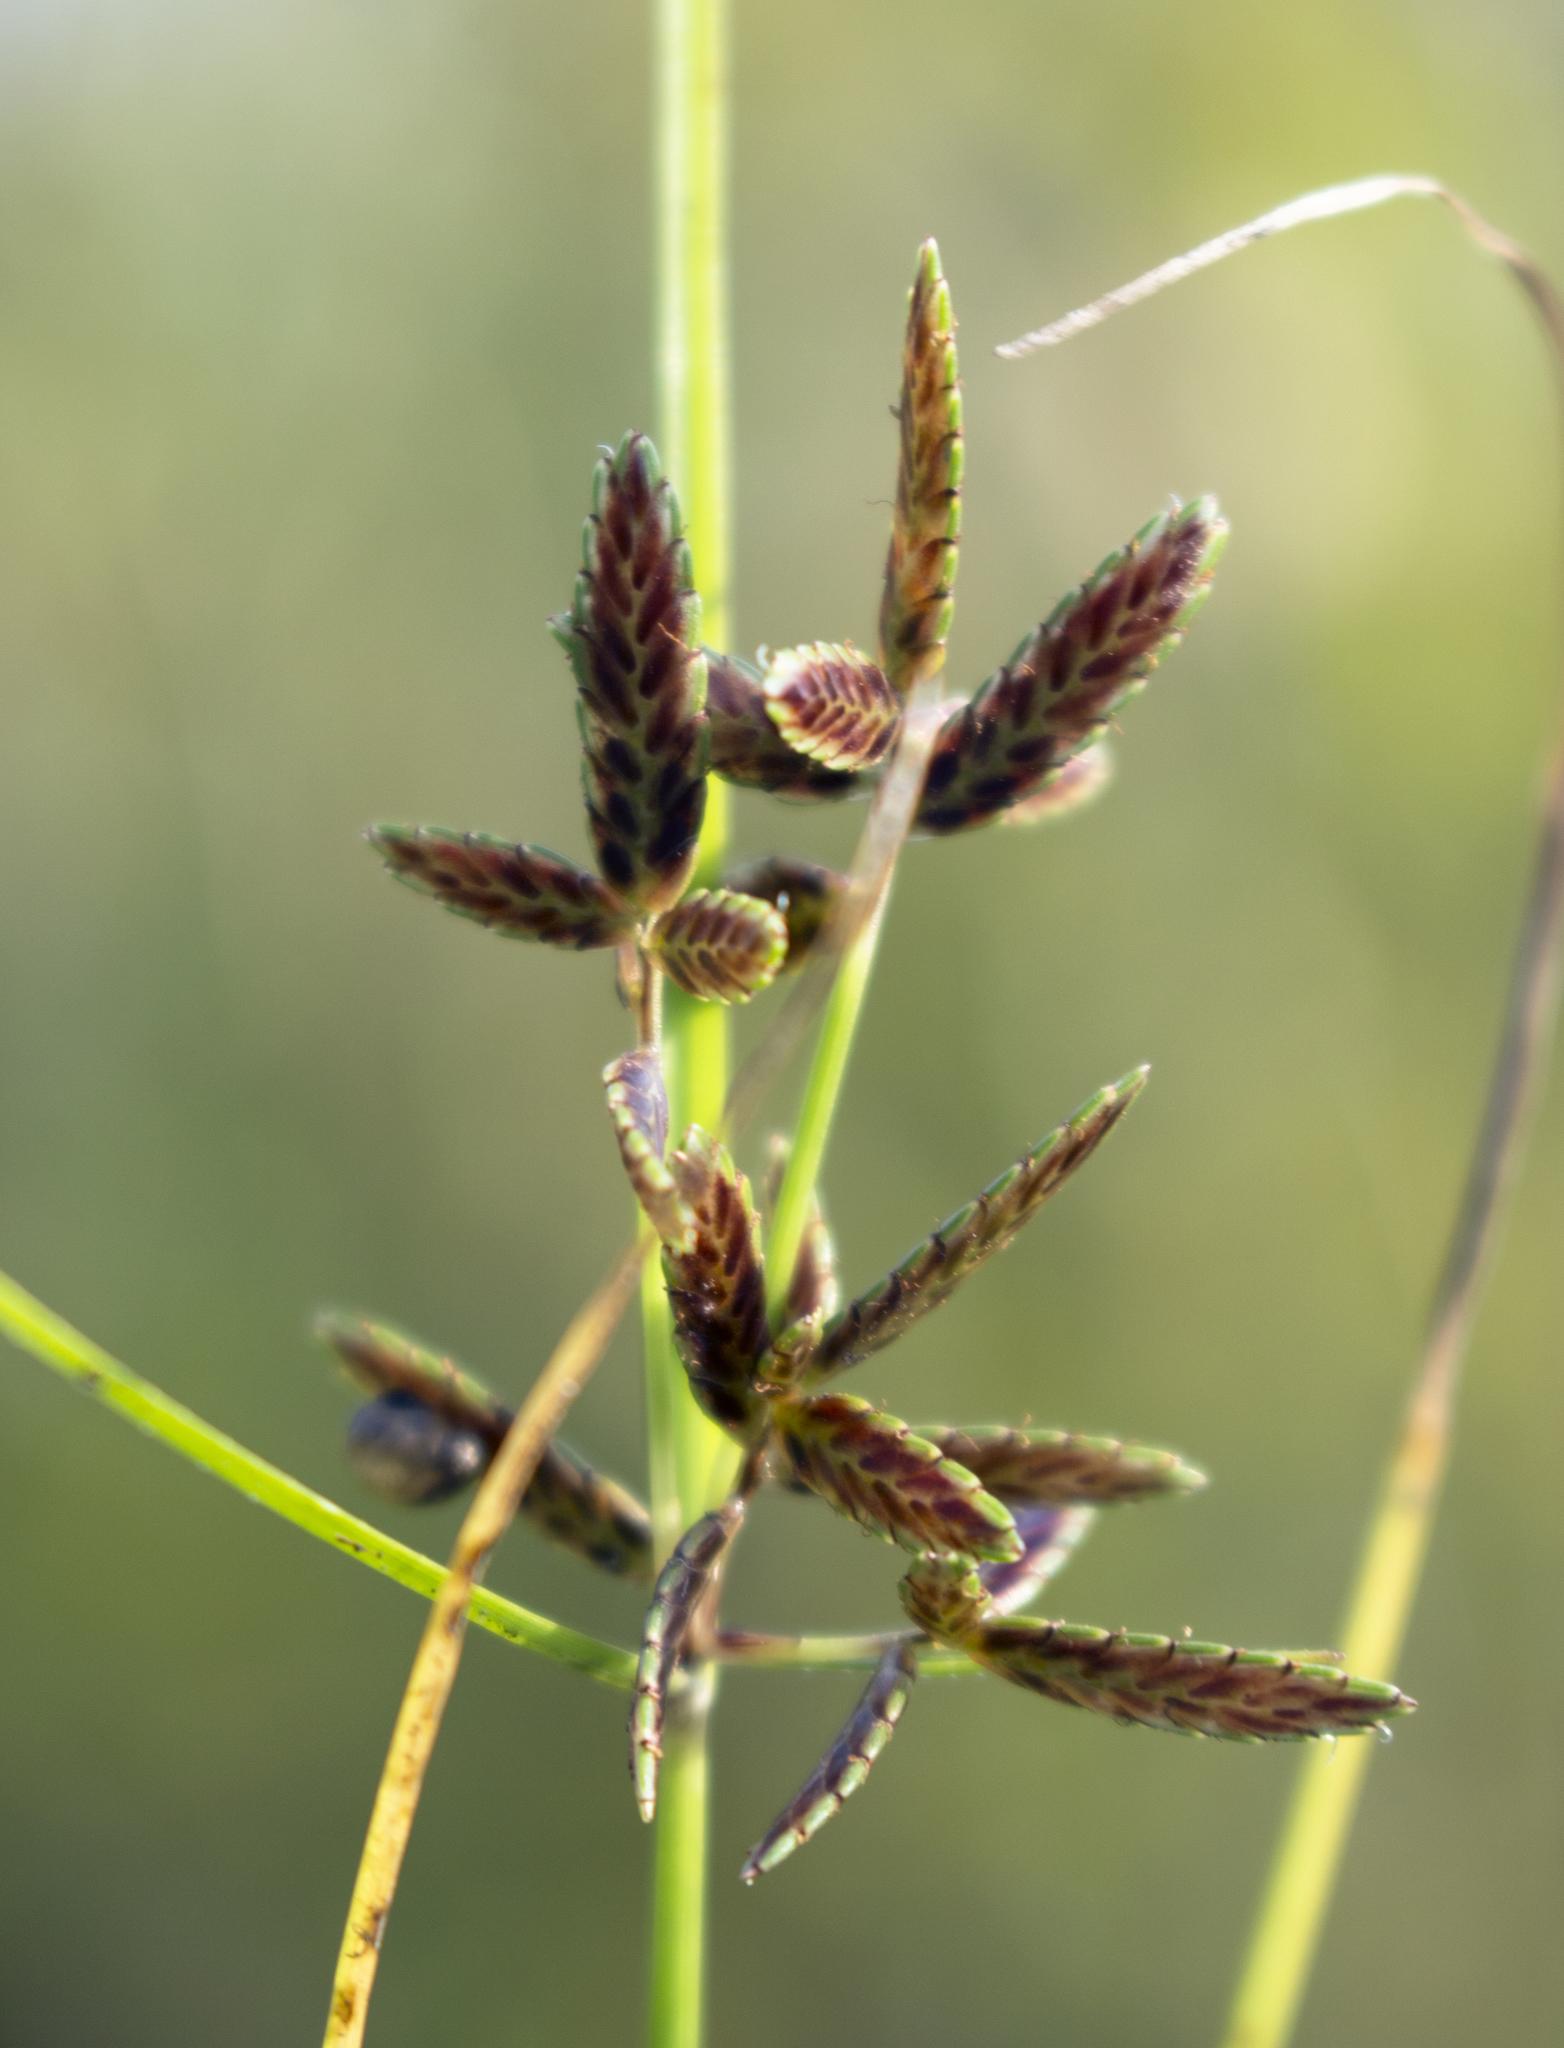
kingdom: Plantae
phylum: Tracheophyta
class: Liliopsida
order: Poales
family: Cyperaceae
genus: Cyperus
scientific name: Cyperus bipartitus
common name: Brook flatsedge
